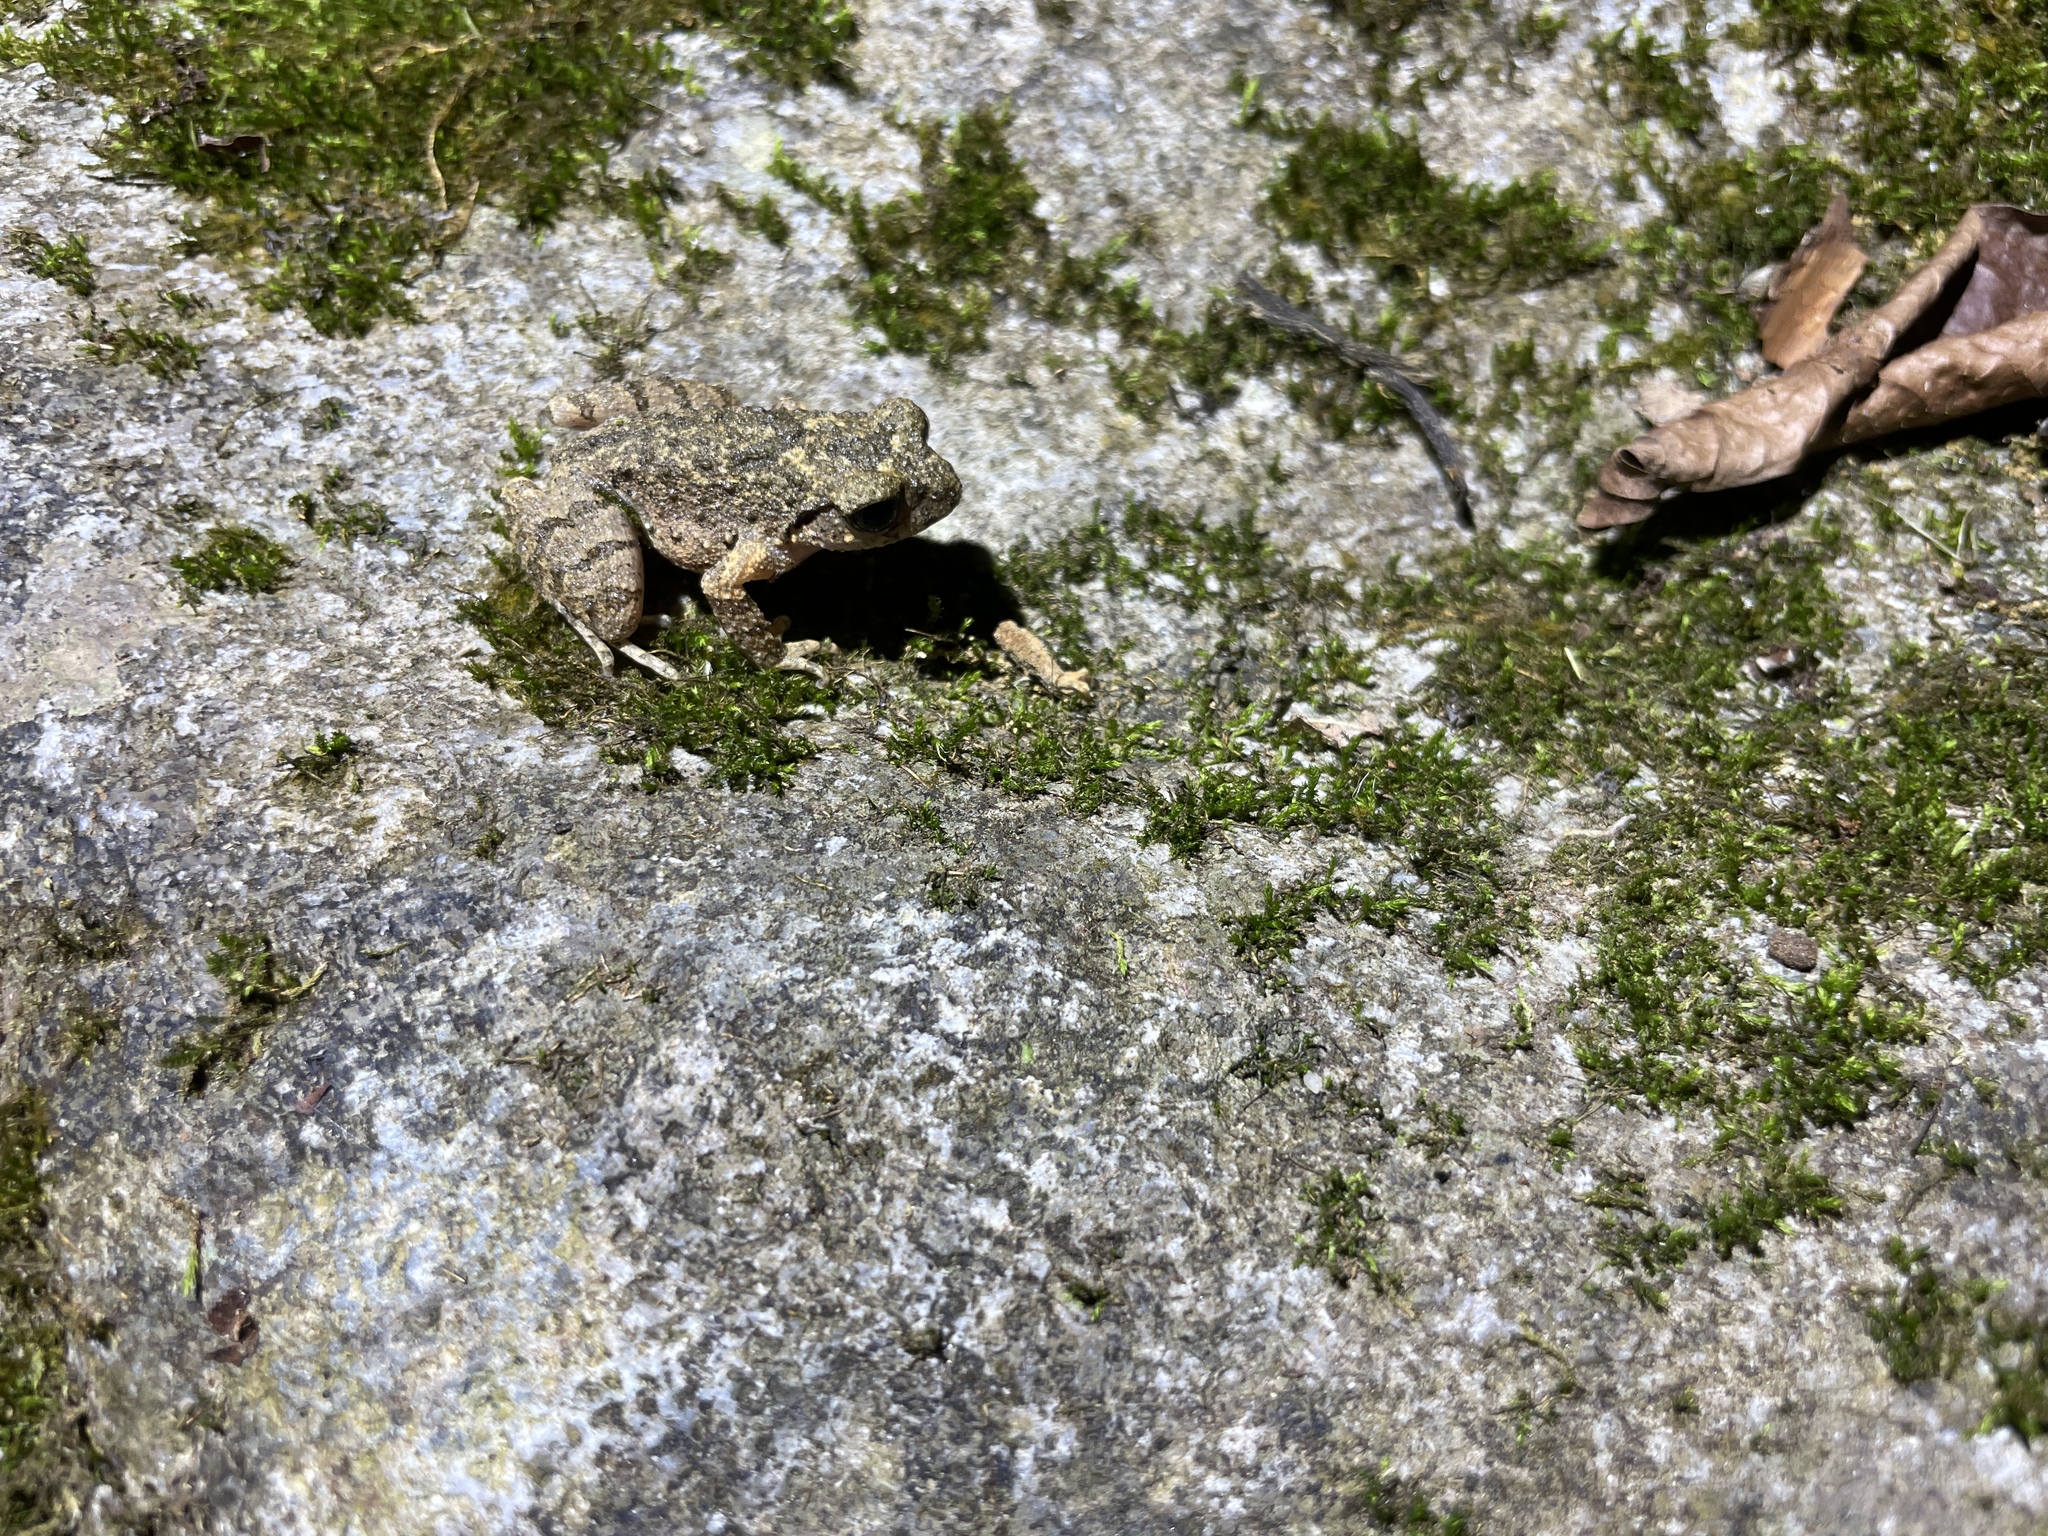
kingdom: Animalia
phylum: Chordata
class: Amphibia
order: Anura
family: Megophryidae
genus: Leptobrachella
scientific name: Leptobrachella laui
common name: Lau's leaf little toad
